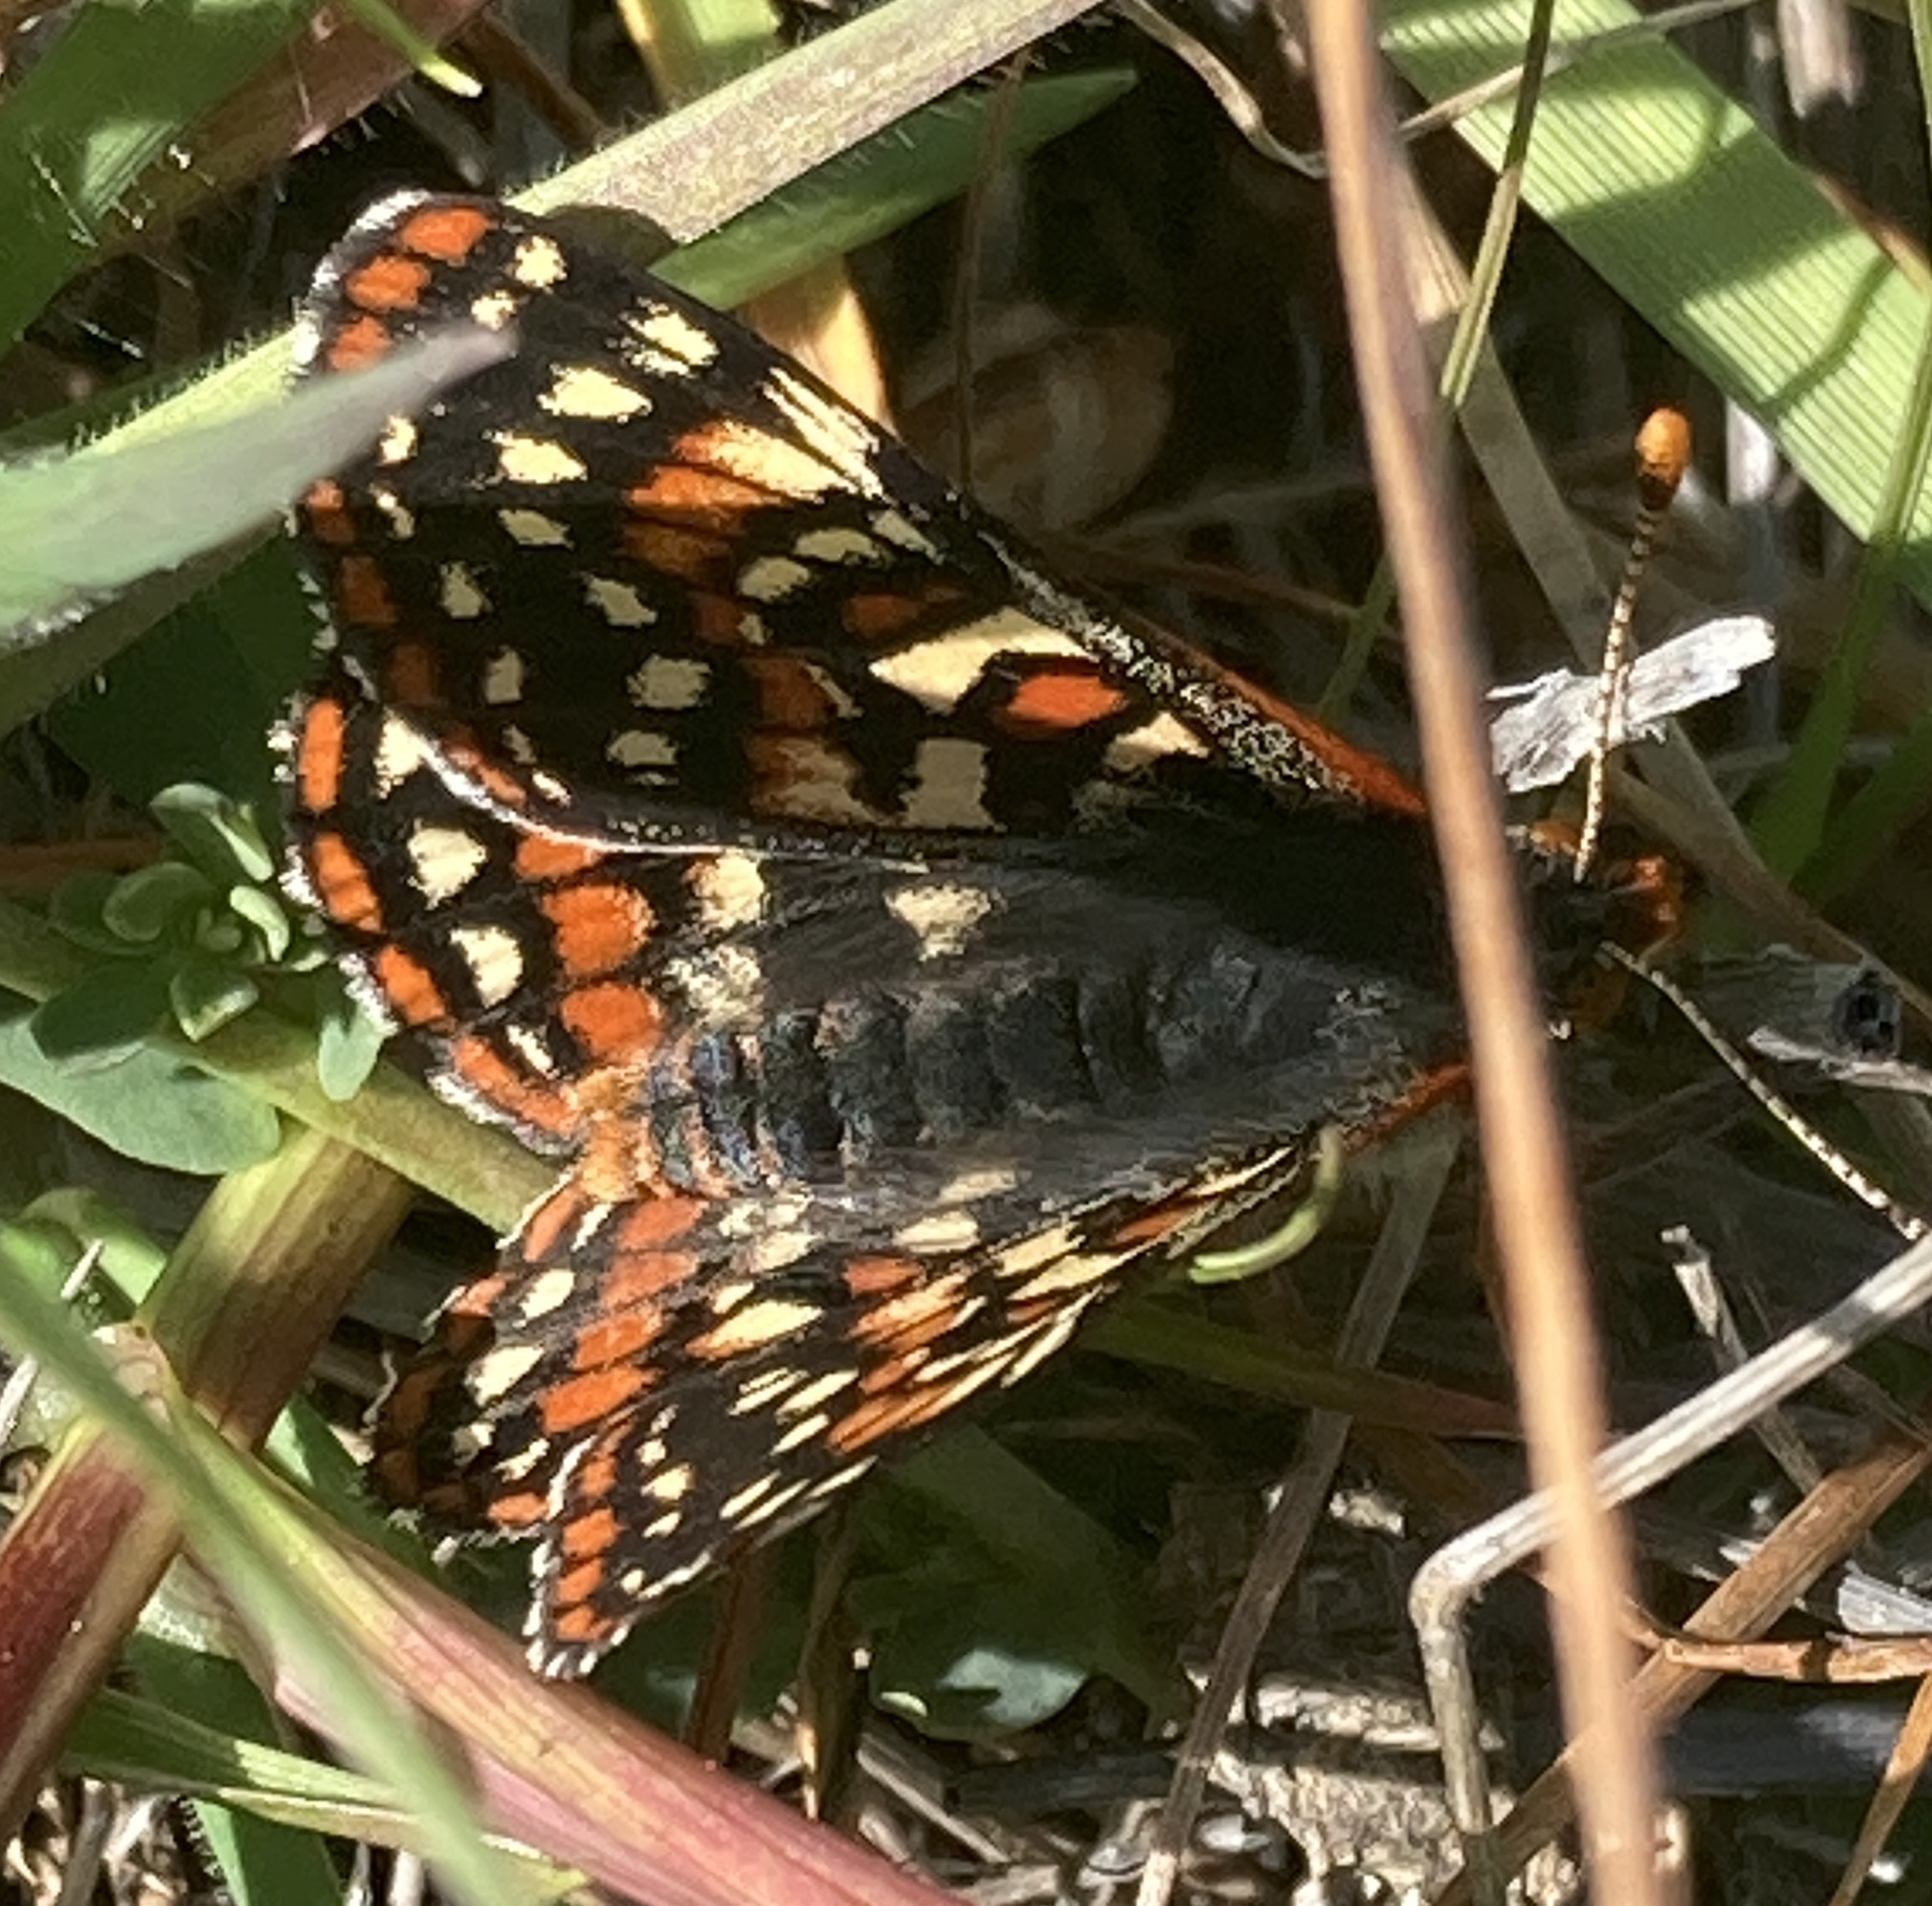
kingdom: Animalia
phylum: Arthropoda
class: Insecta
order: Lepidoptera
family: Nymphalidae
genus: Occidryas
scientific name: Occidryas editha
